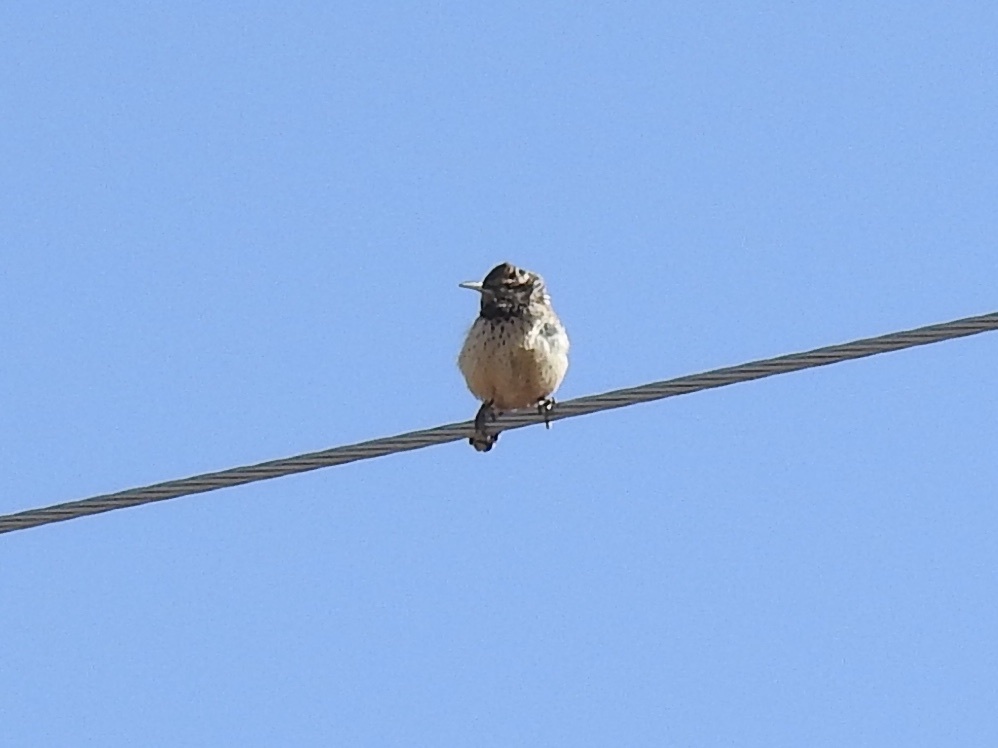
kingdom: Animalia
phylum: Chordata
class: Aves
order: Passeriformes
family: Troglodytidae
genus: Campylorhynchus
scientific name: Campylorhynchus brunneicapillus
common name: Cactus wren
